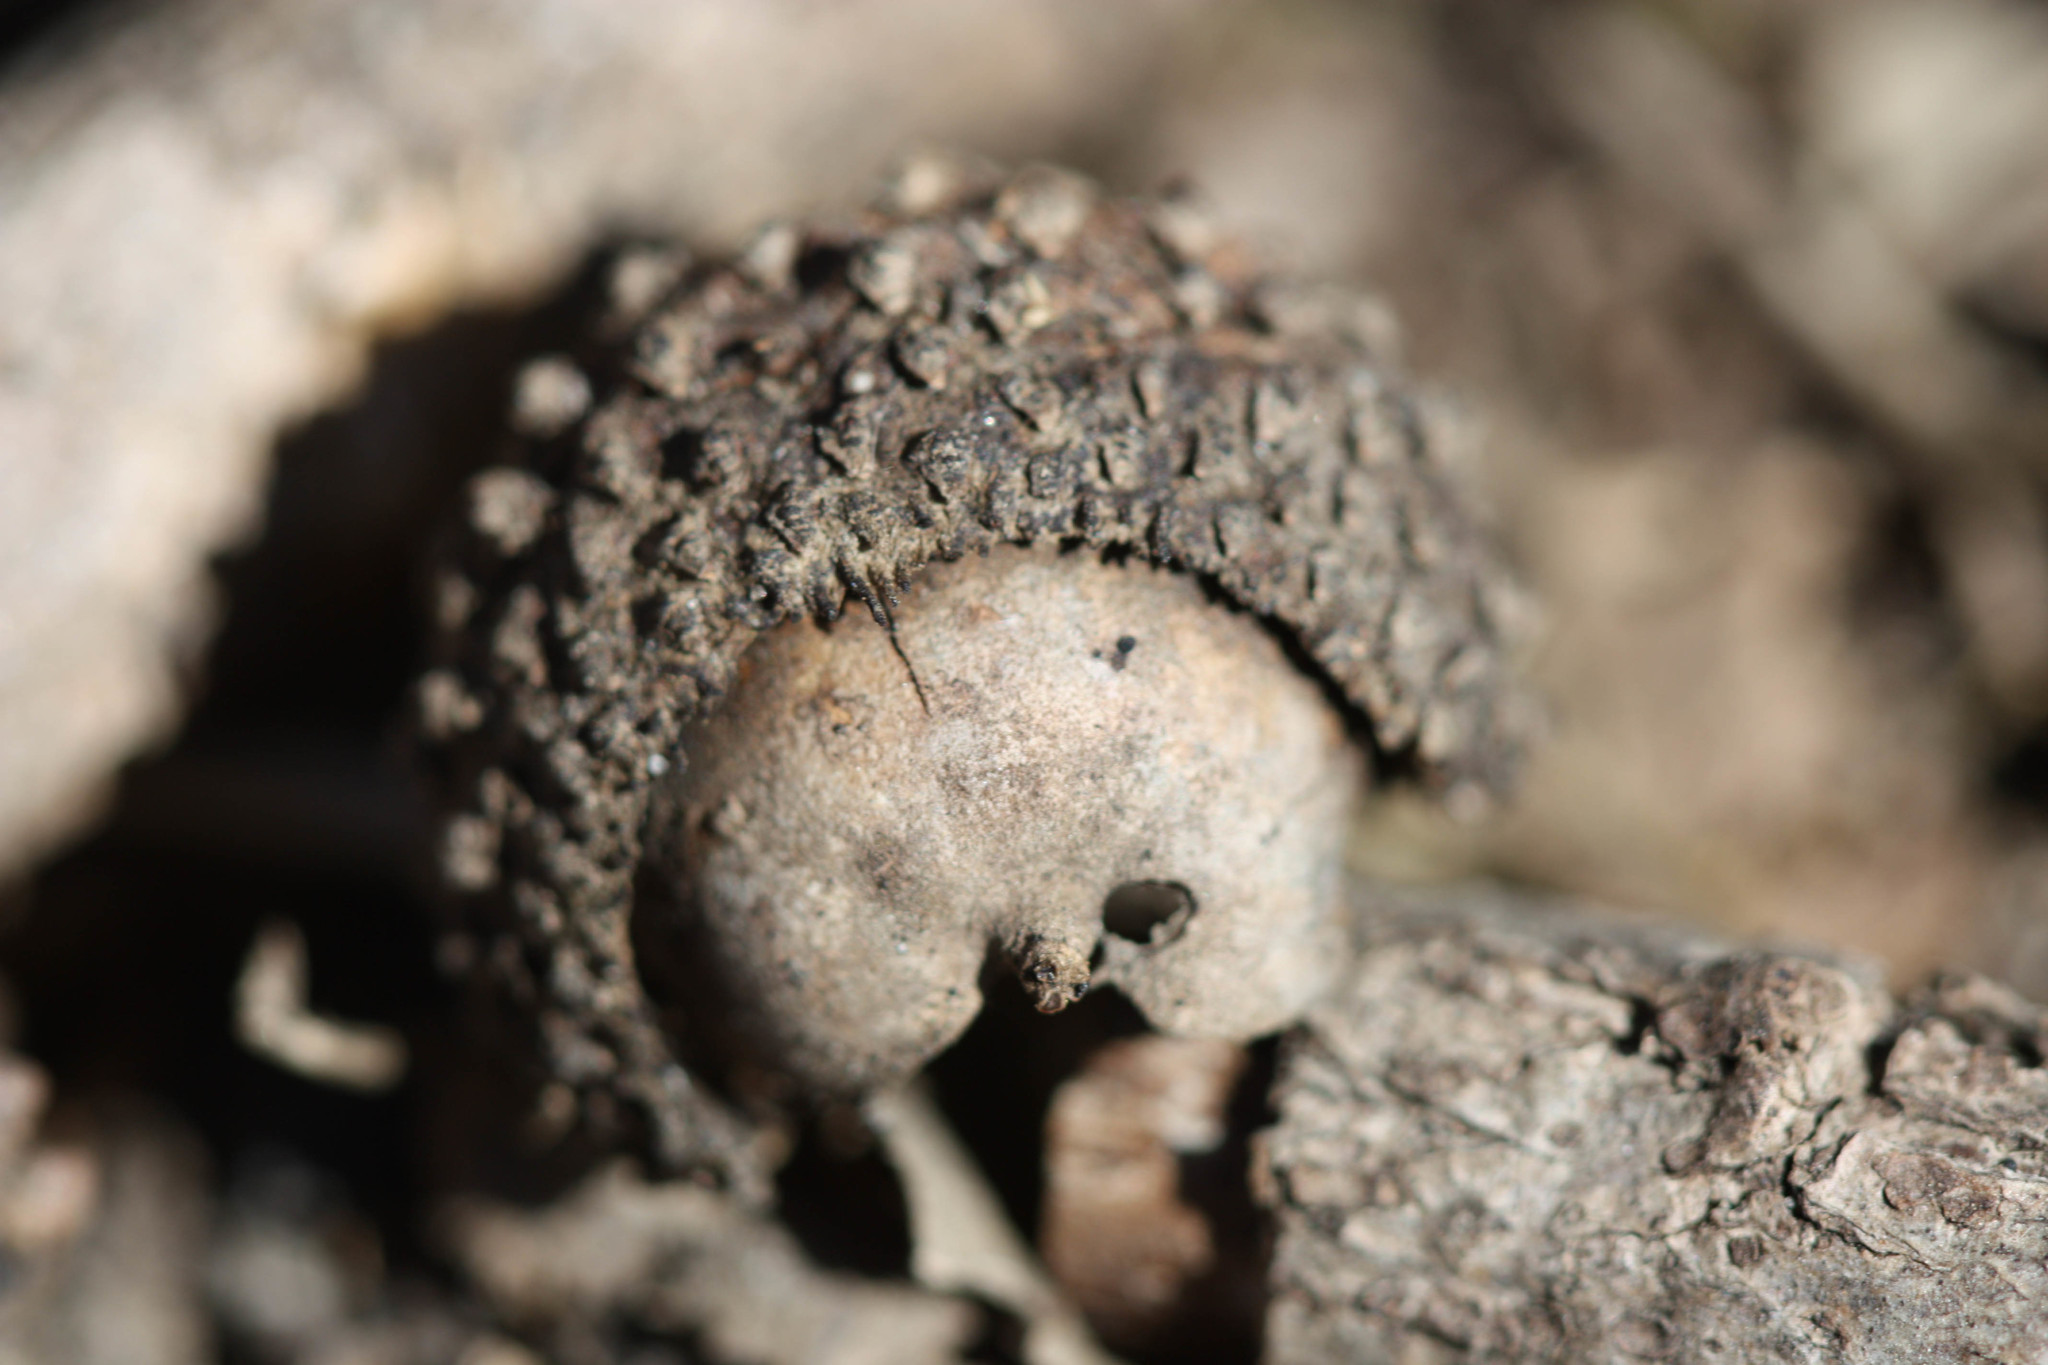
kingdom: Plantae
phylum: Tracheophyta
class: Magnoliopsida
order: Fagales
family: Fagaceae
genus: Quercus
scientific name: Quercus macrocarpa
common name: Bur oak
